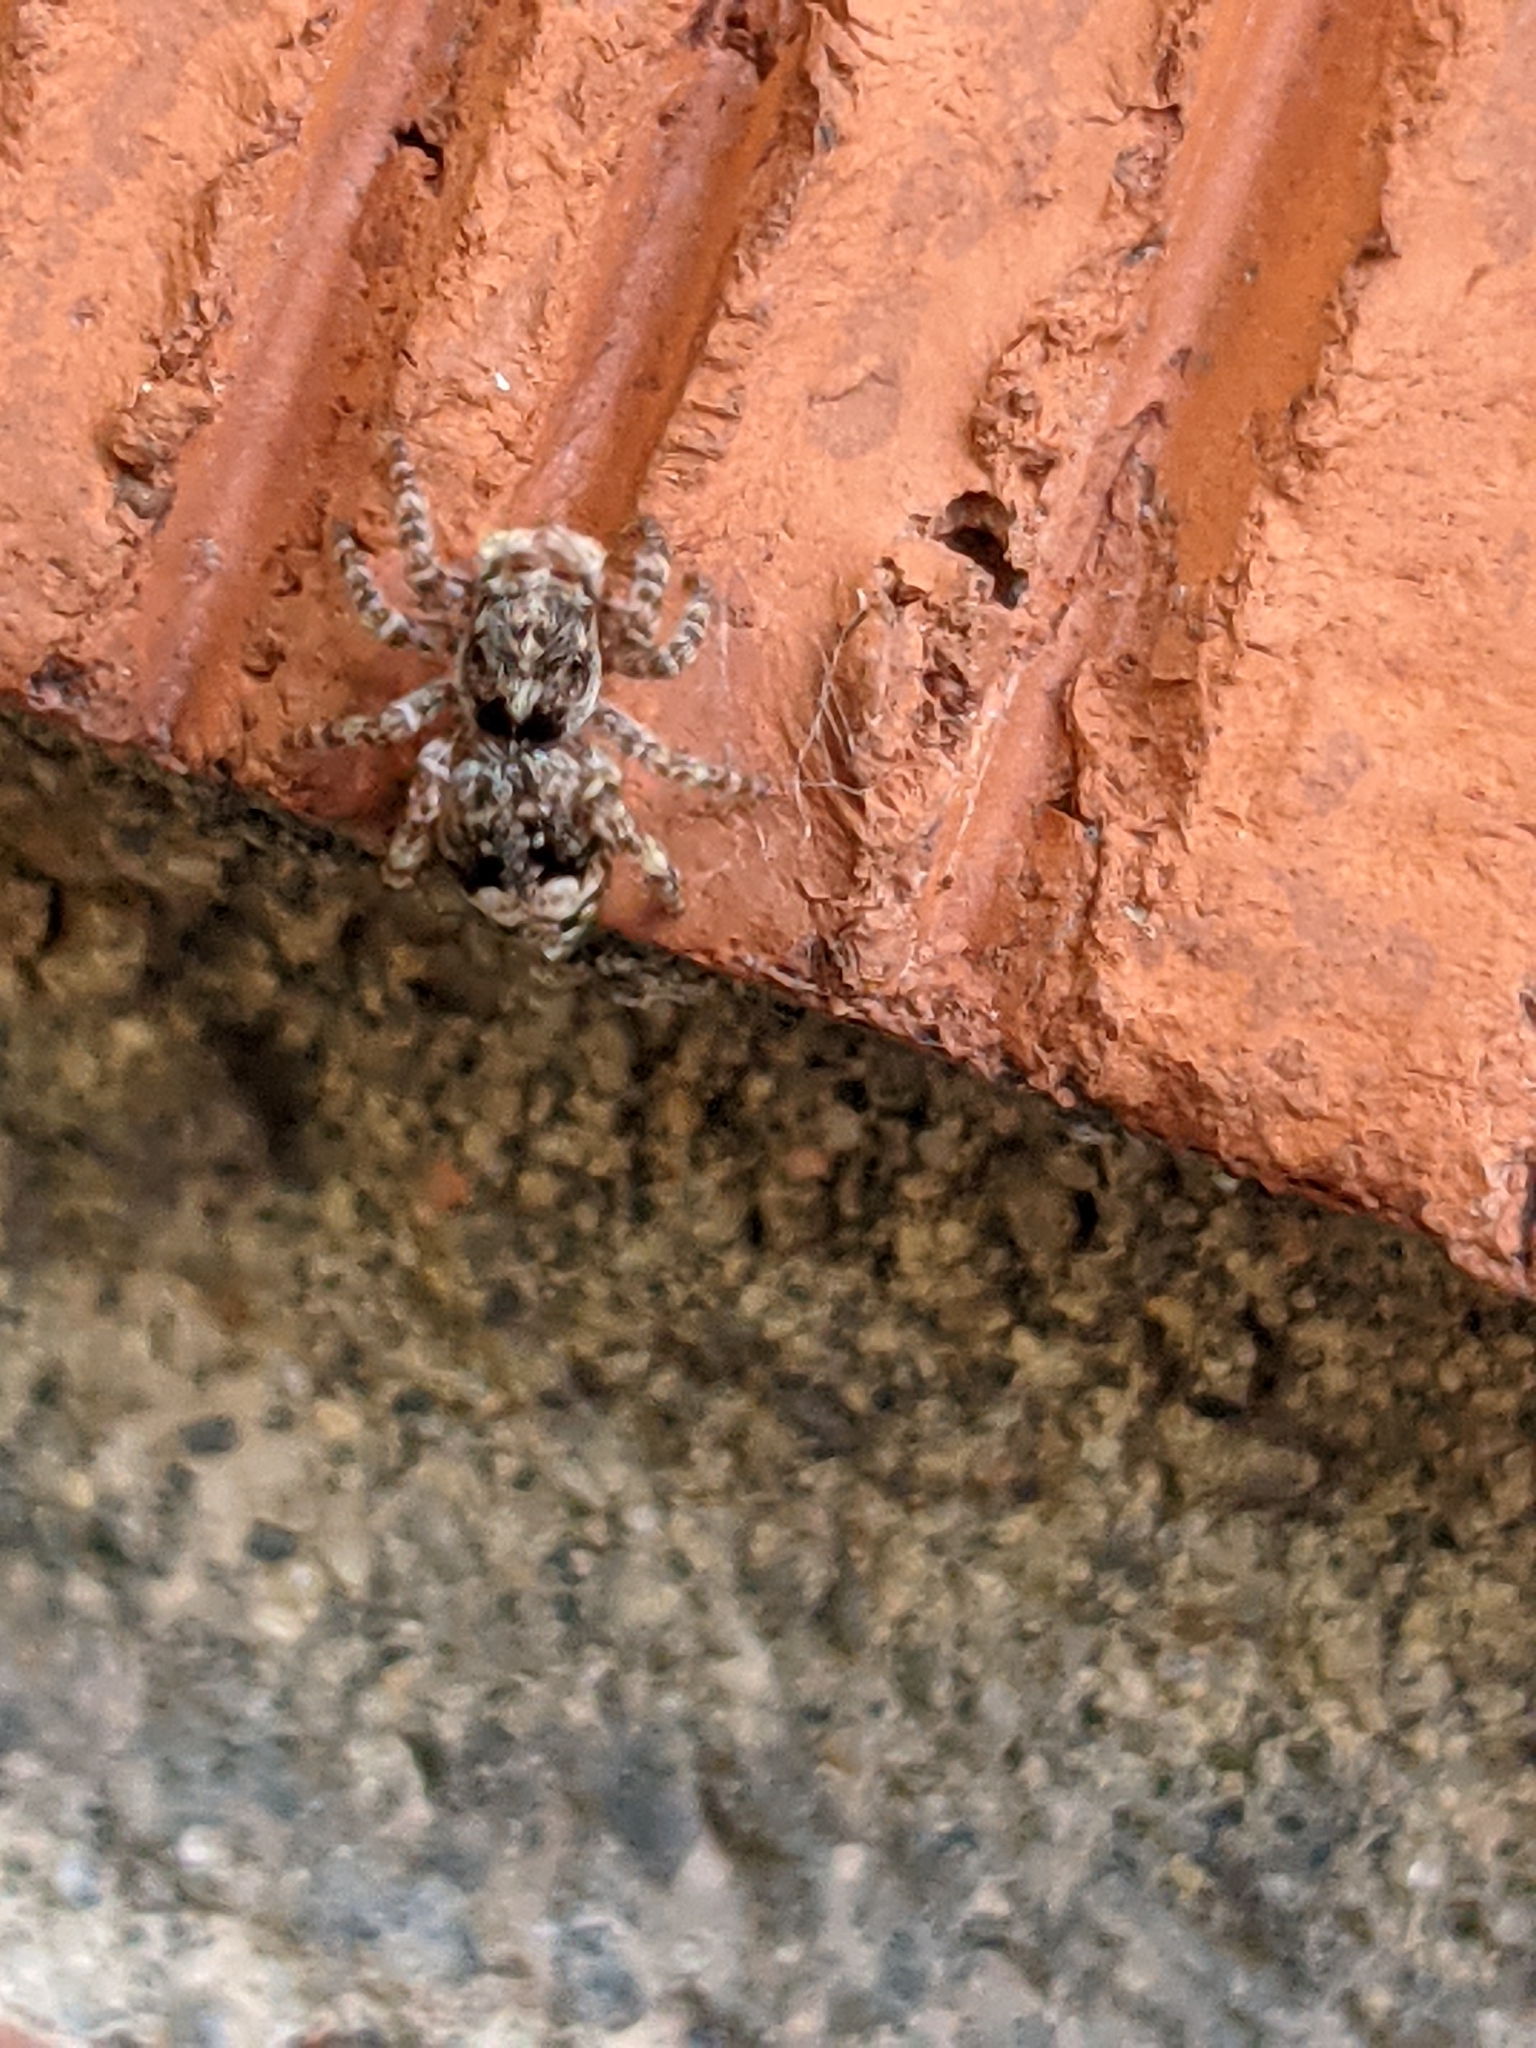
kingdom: Animalia
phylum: Arthropoda
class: Arachnida
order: Araneae
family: Salticidae
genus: Attulus
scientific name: Attulus fasciger
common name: Asiatic wall jumping spider
